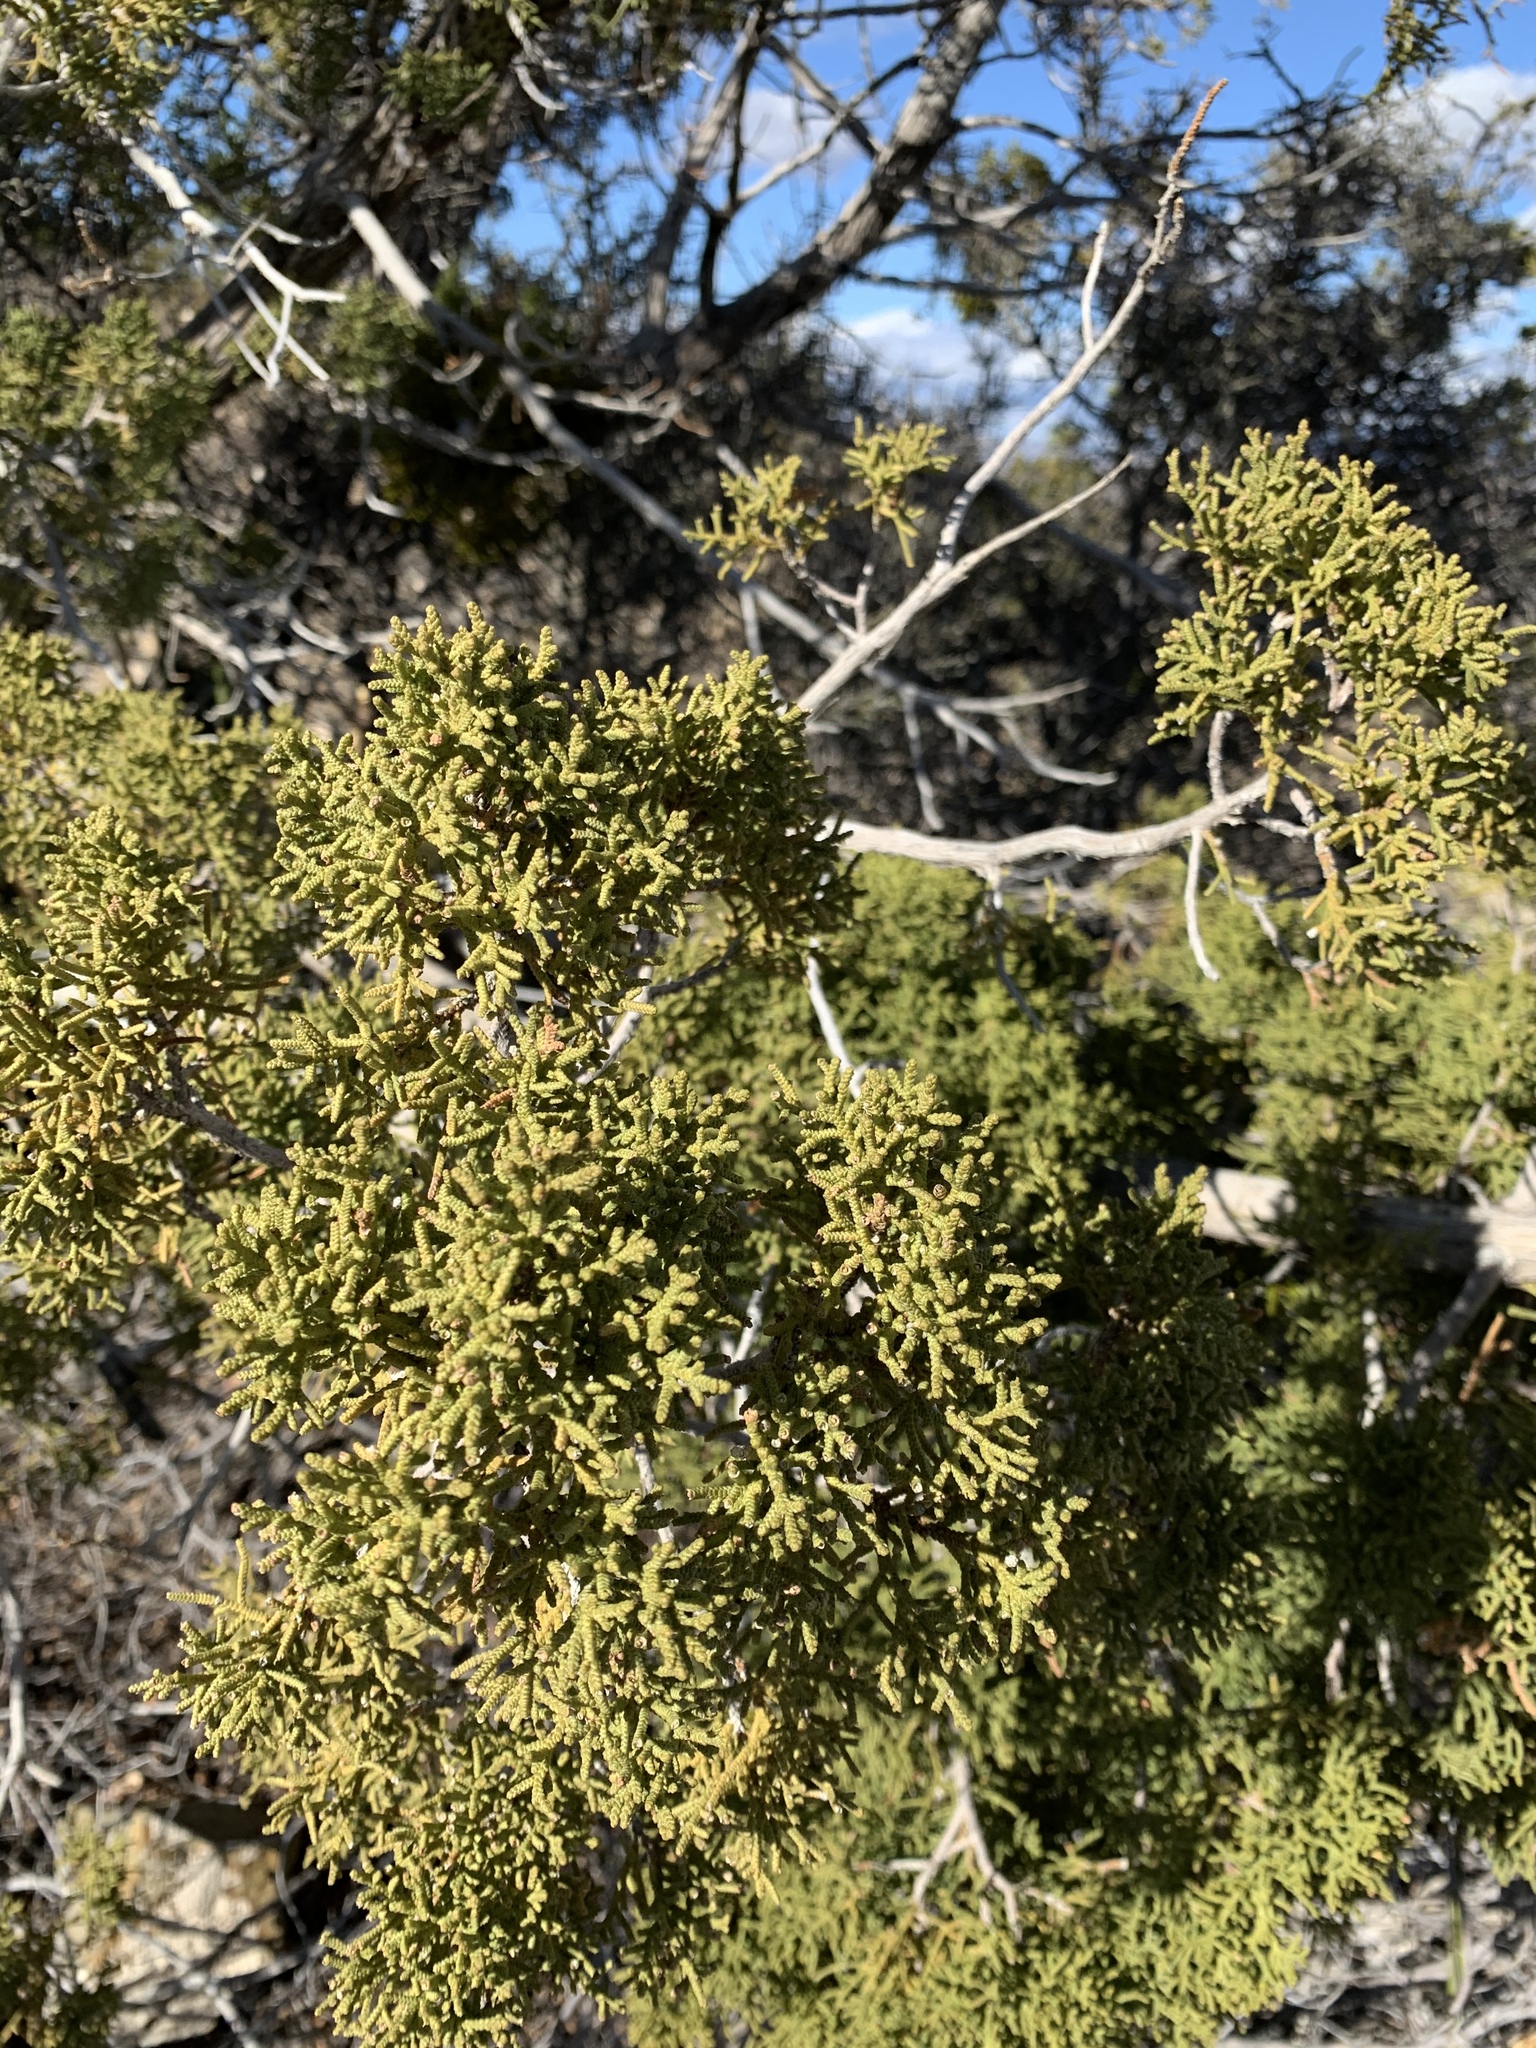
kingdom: Plantae
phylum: Tracheophyta
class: Pinopsida
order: Pinales
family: Cupressaceae
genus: Juniperus
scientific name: Juniperus monosperma
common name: One-seed juniper
